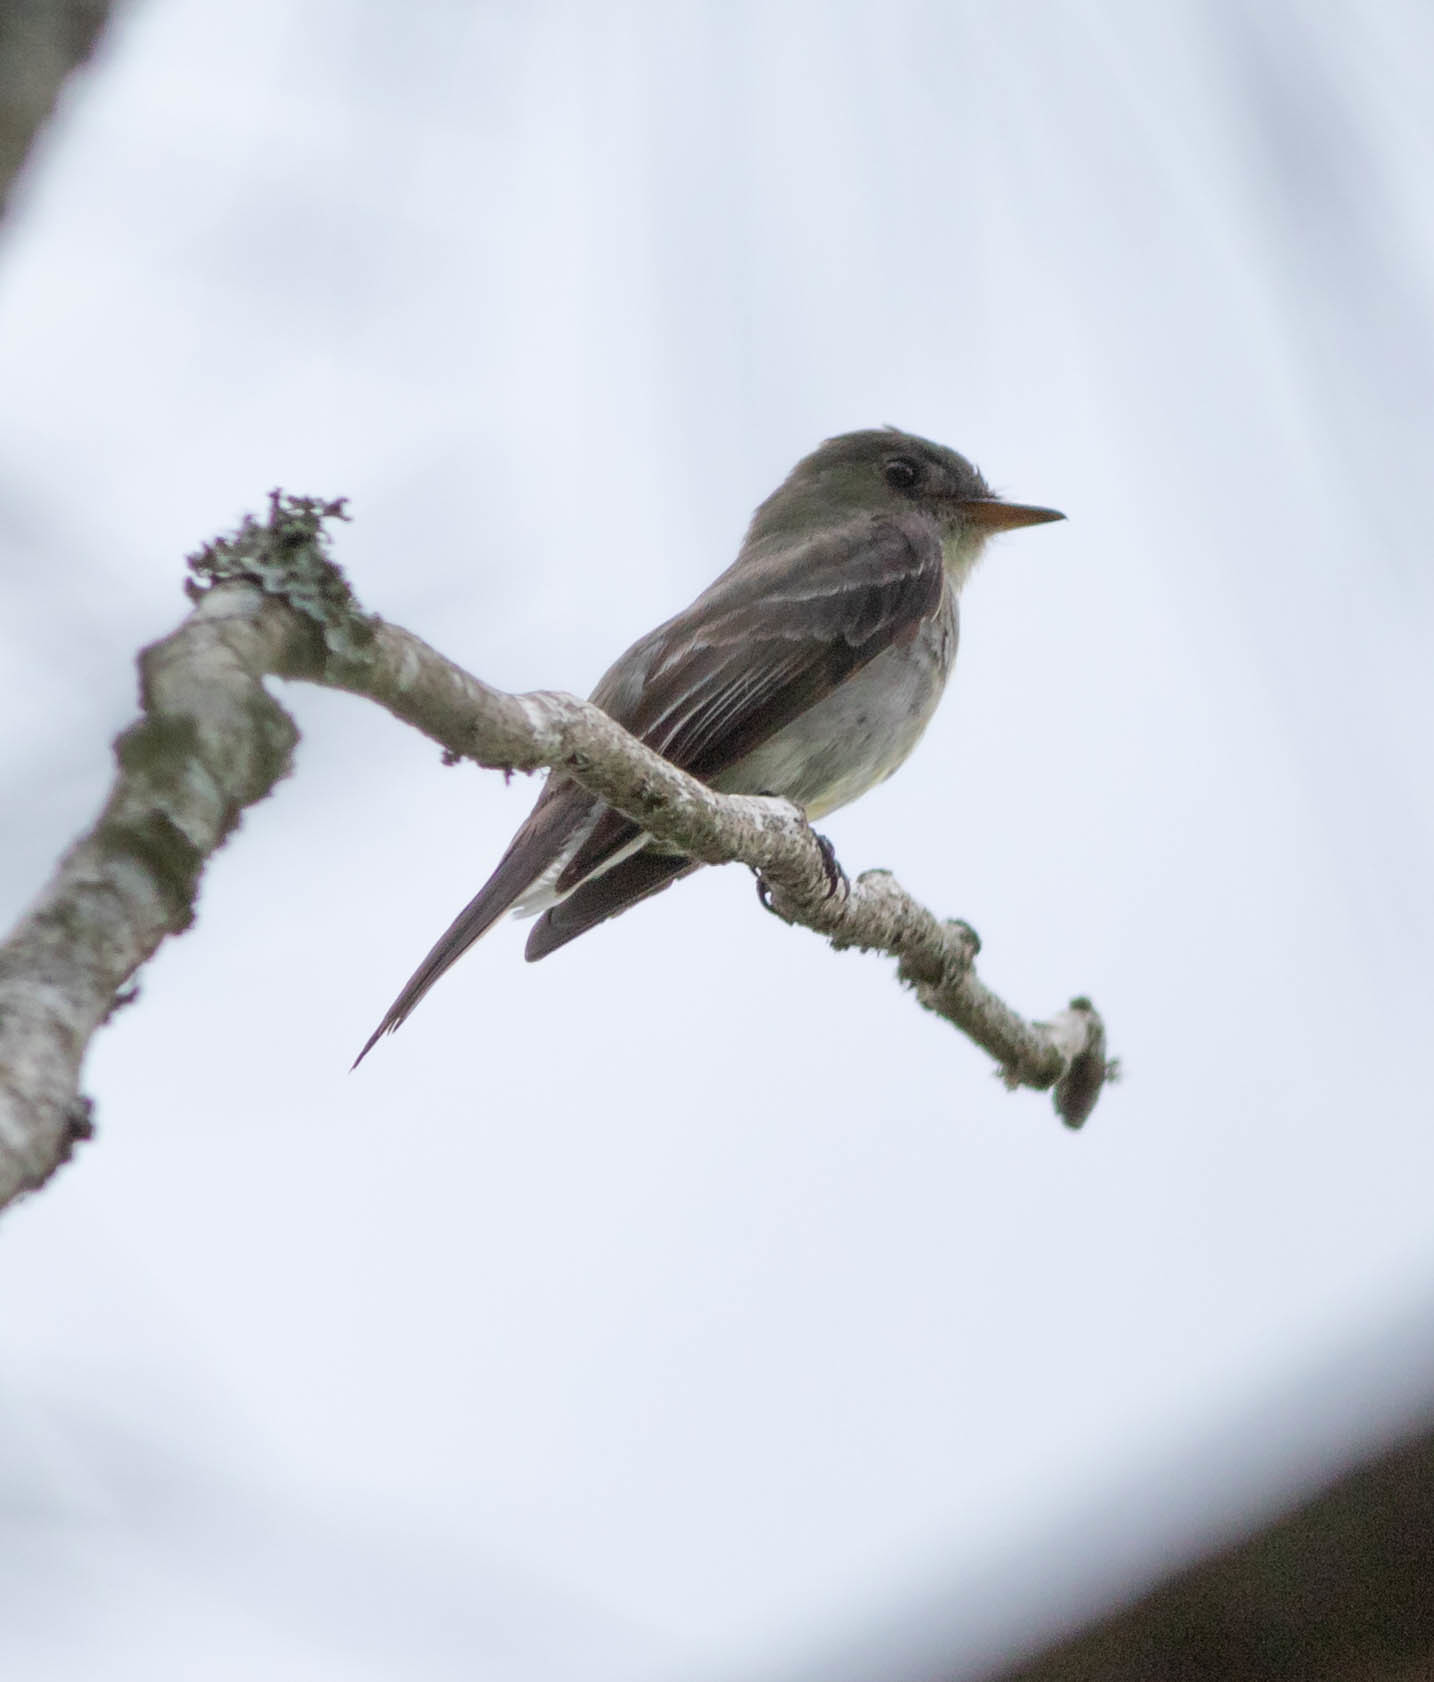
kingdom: Animalia
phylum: Chordata
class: Aves
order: Passeriformes
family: Tyrannidae
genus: Contopus
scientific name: Contopus virens
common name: Eastern wood-pewee
